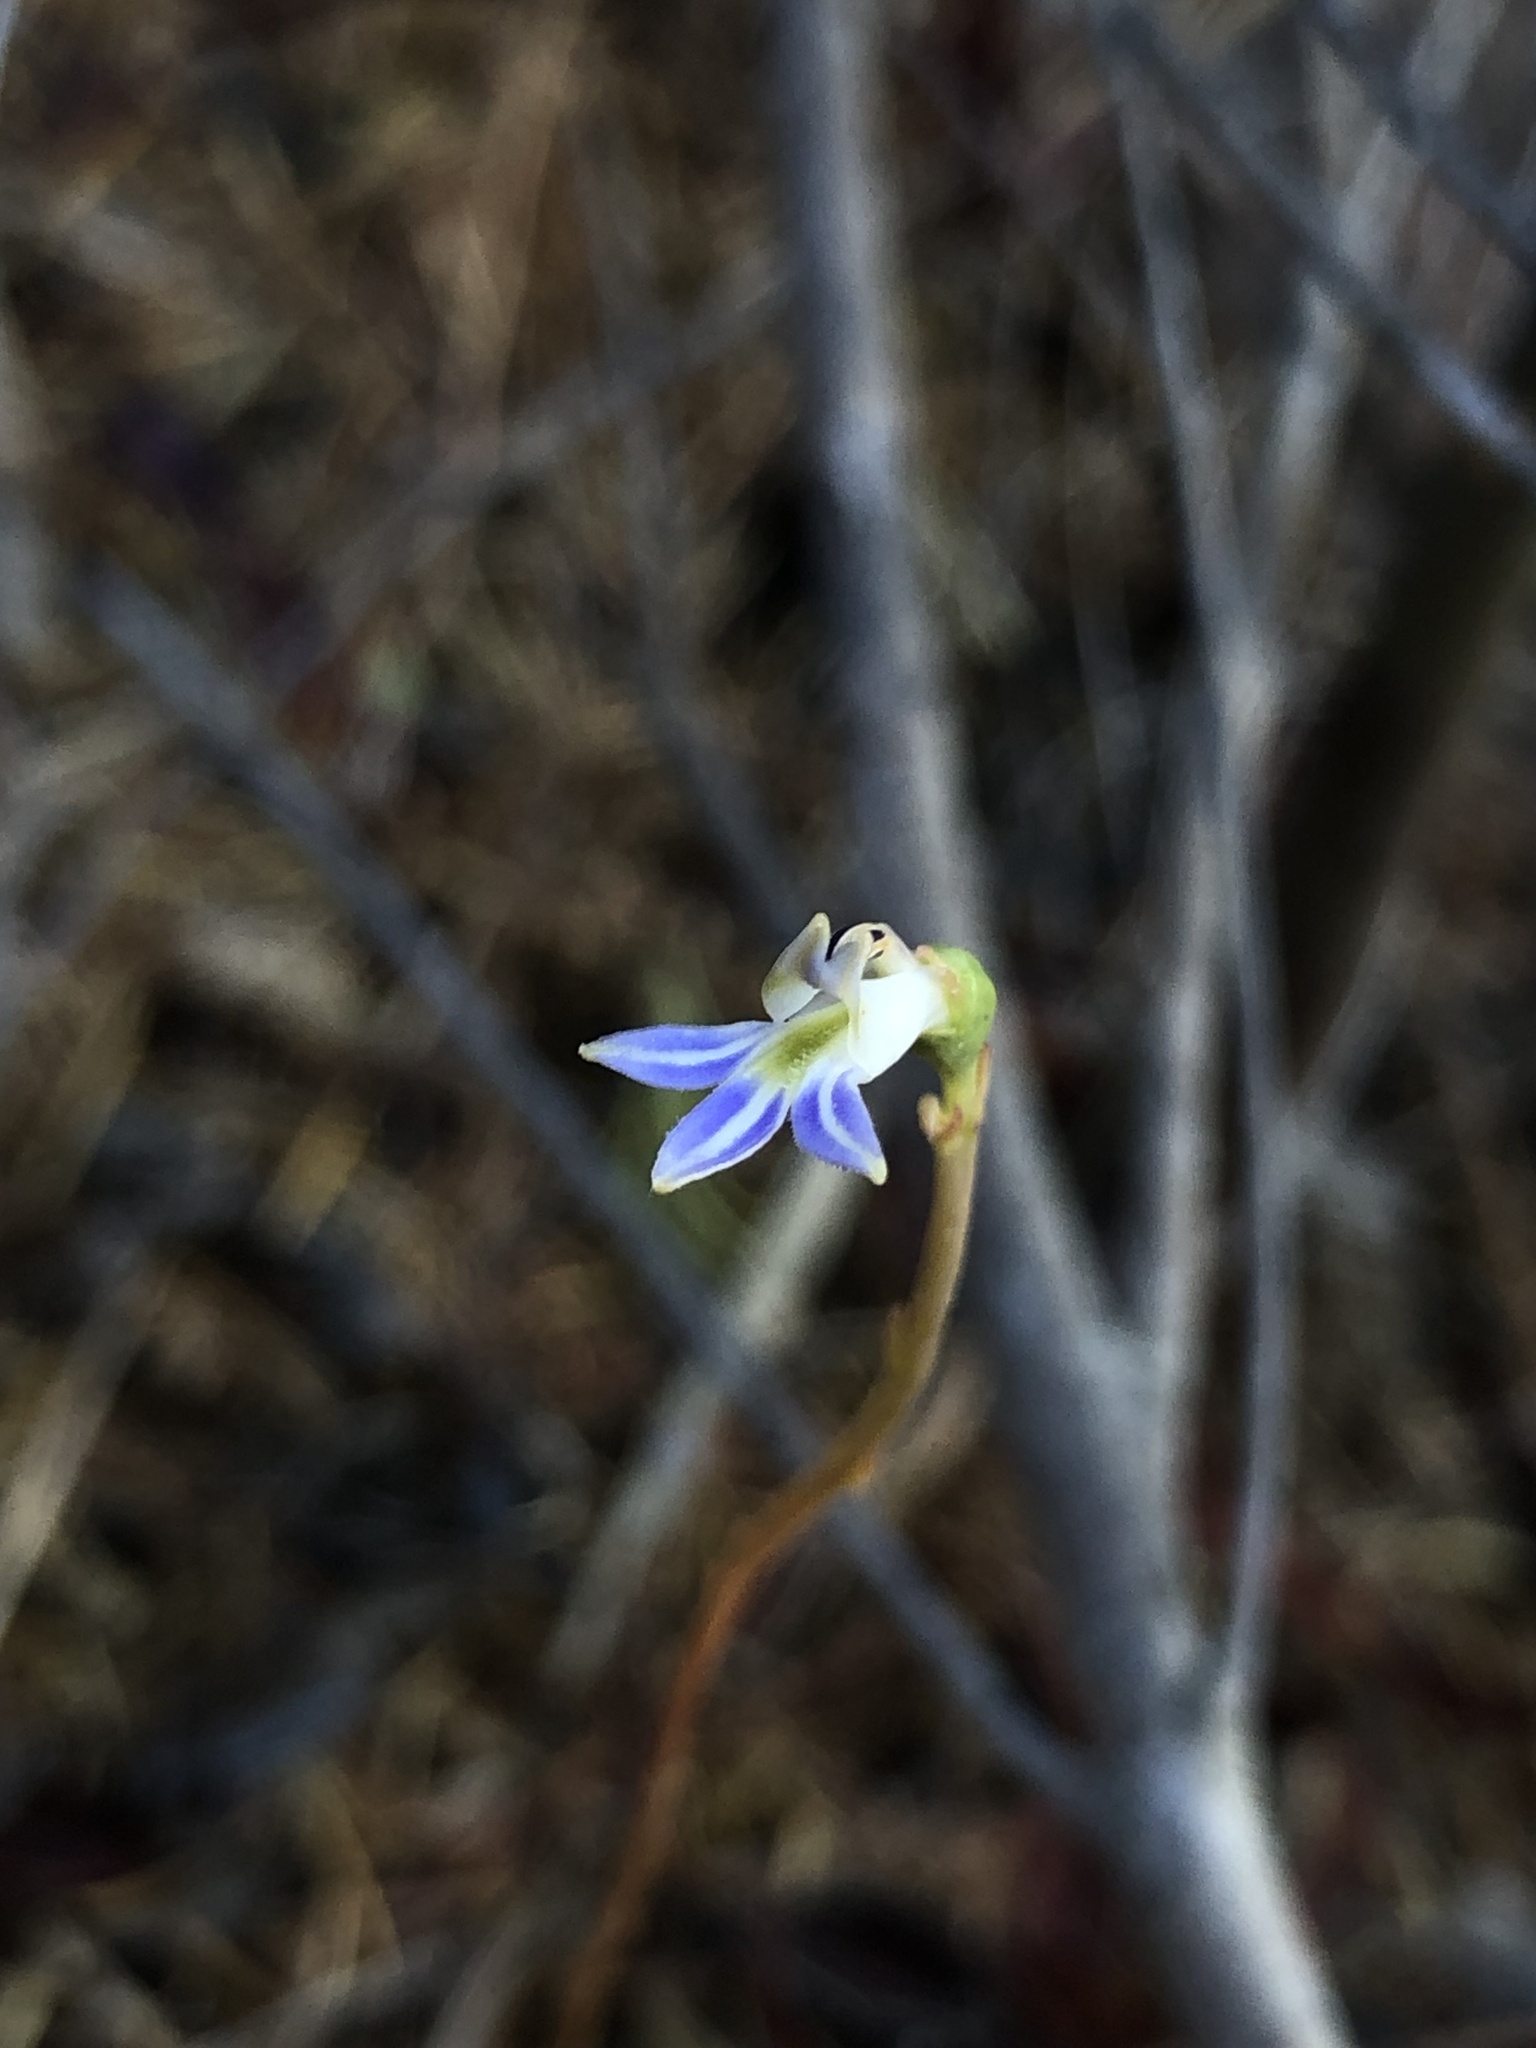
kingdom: Plantae
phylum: Tracheophyta
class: Magnoliopsida
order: Asterales
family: Campanulaceae
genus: Lobelia
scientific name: Lobelia gibbosa
